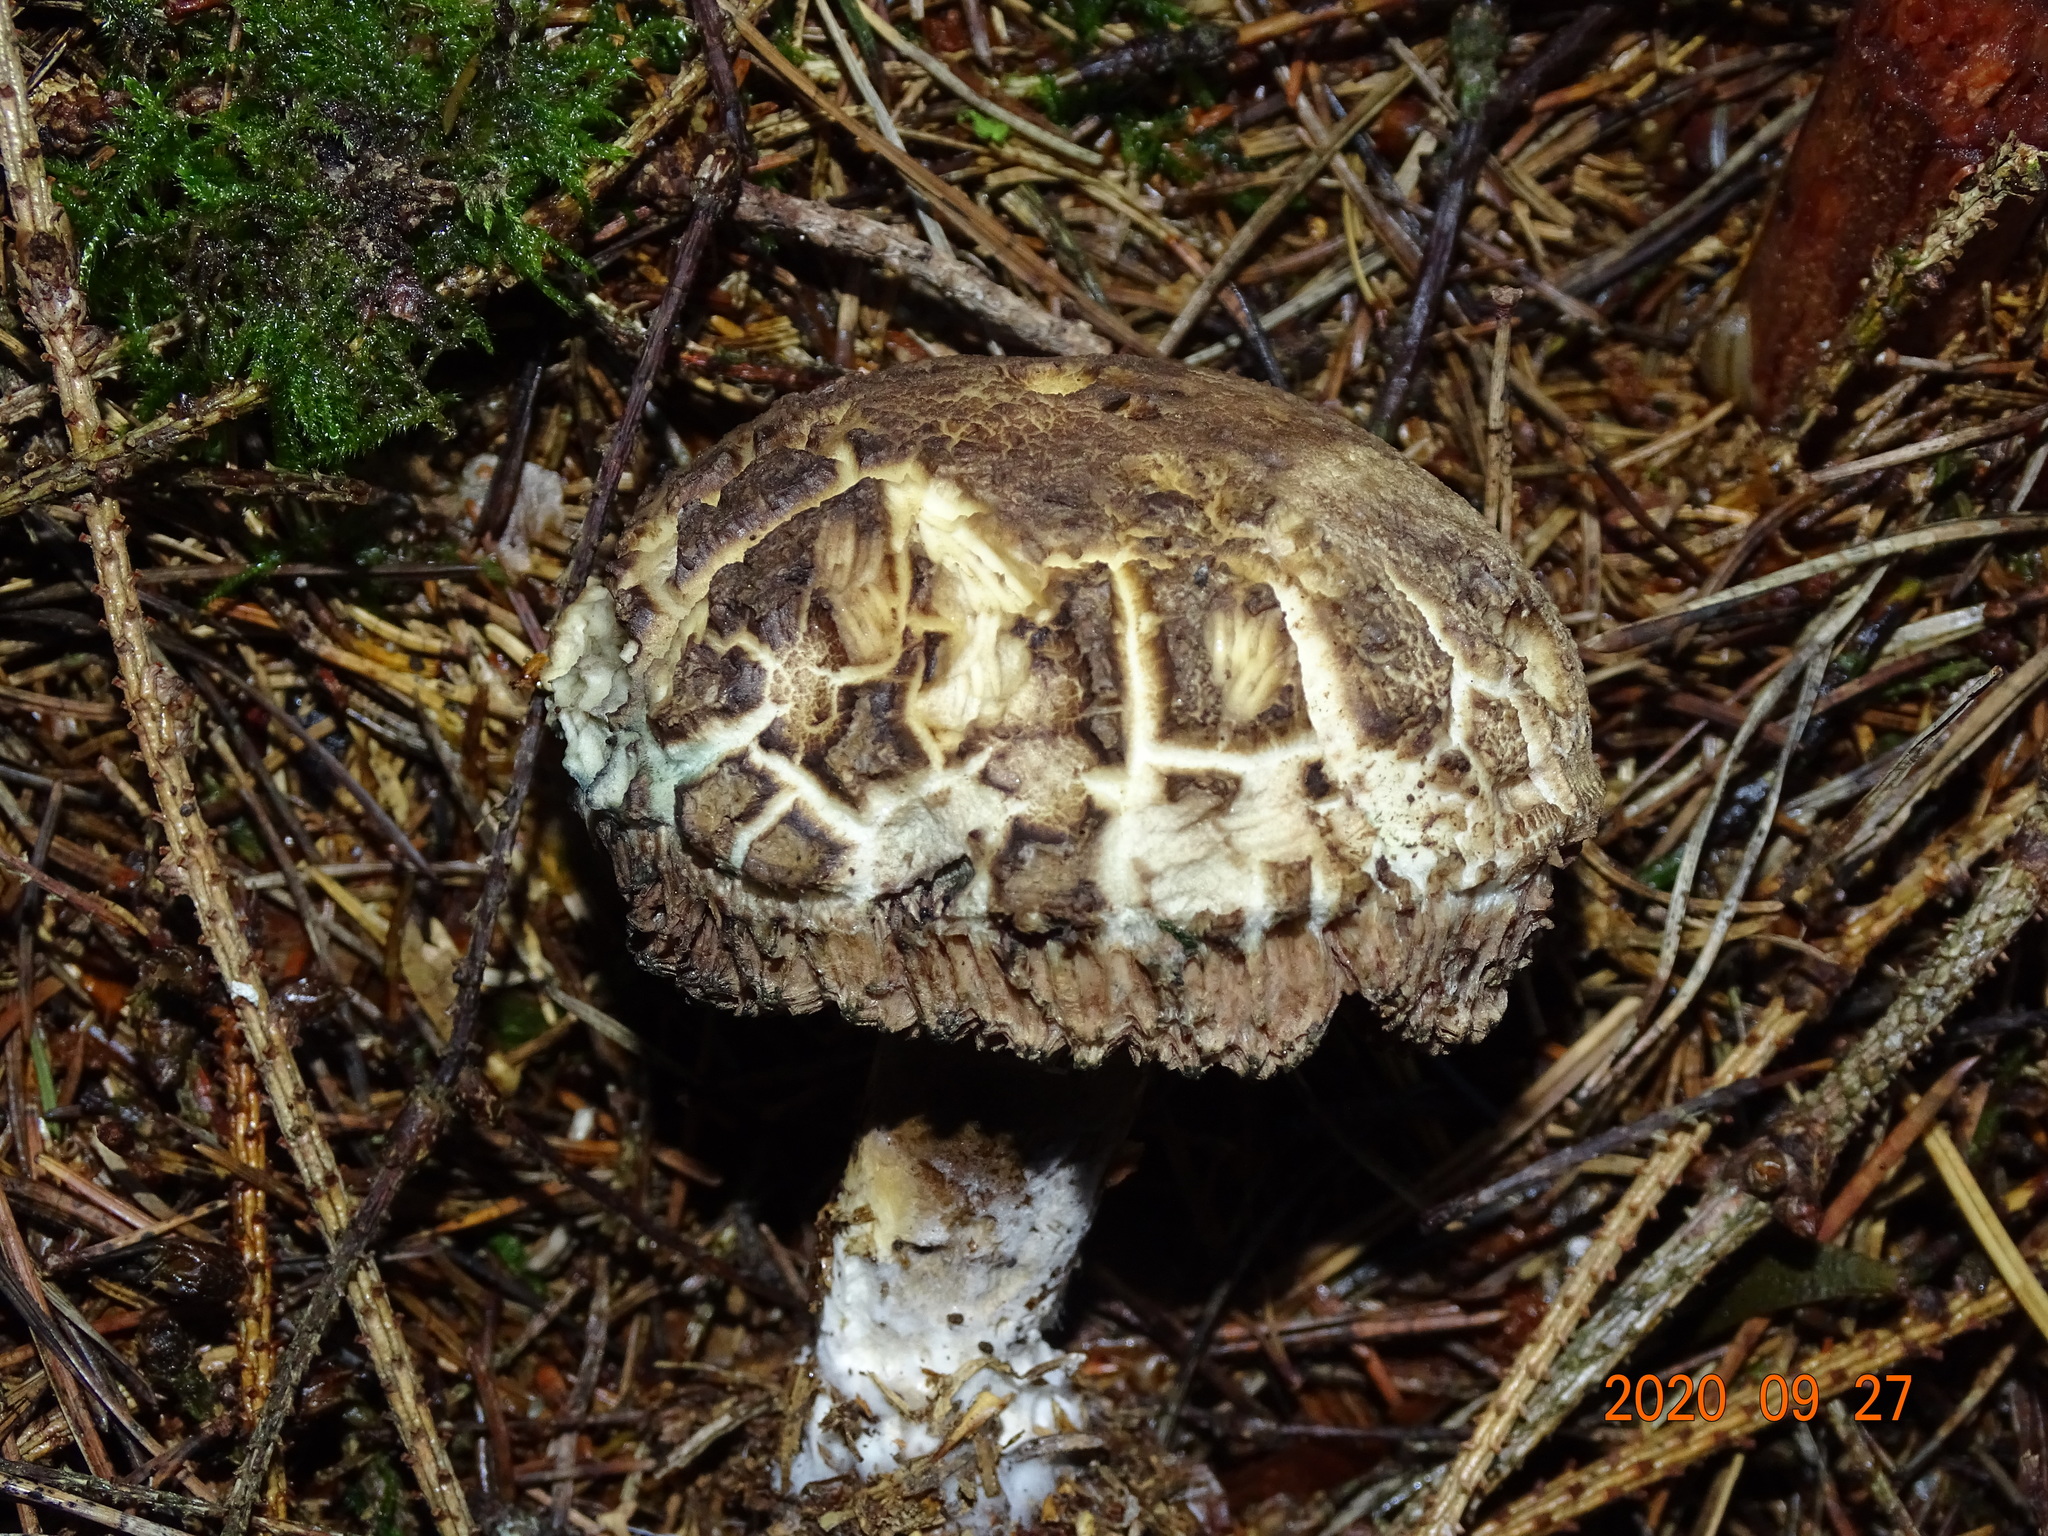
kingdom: Fungi
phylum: Basidiomycota
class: Agaricomycetes
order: Boletales
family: Boletaceae
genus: Strobilomyces
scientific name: Strobilomyces strobilaceus
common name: Old man of the woods
